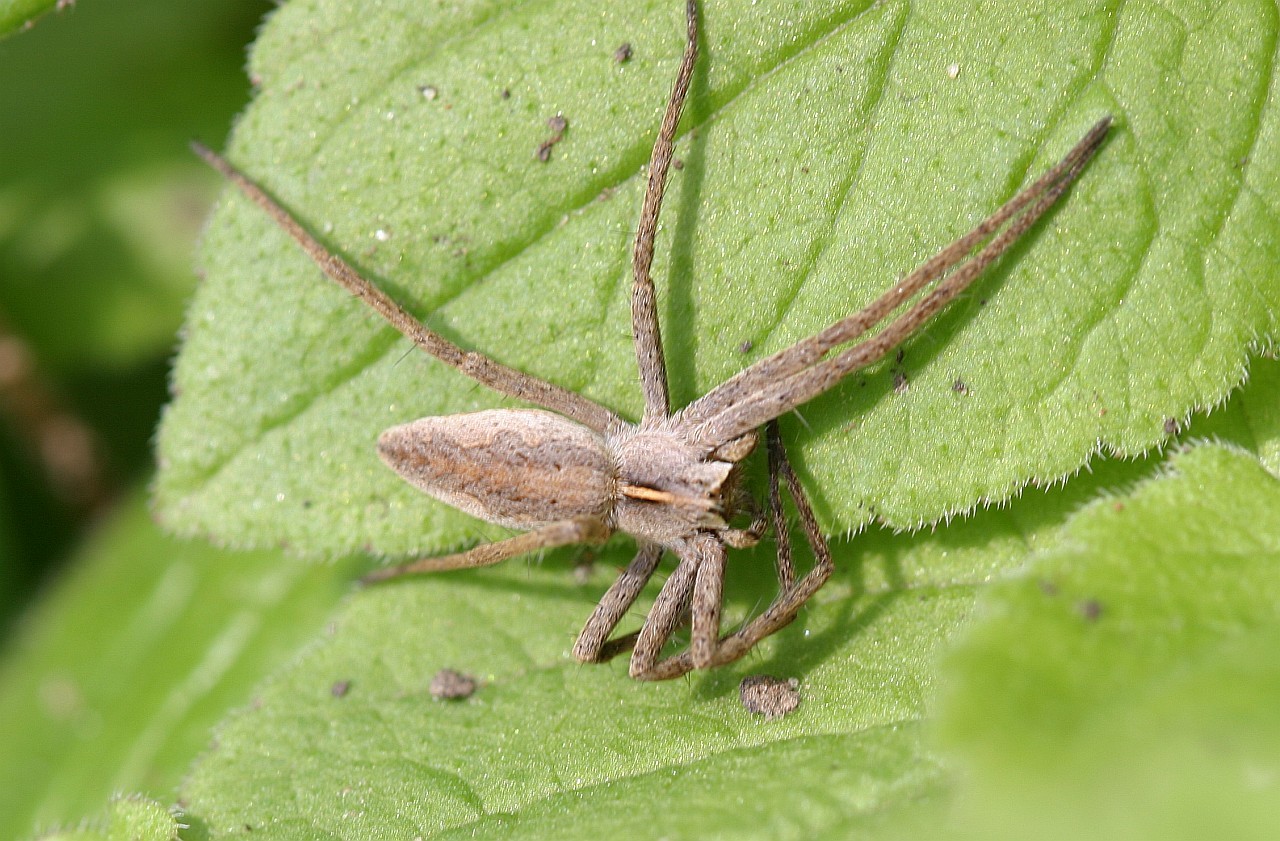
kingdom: Animalia
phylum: Arthropoda
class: Arachnida
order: Araneae
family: Pisauridae
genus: Pisaura
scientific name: Pisaura mirabilis
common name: Tent spider
